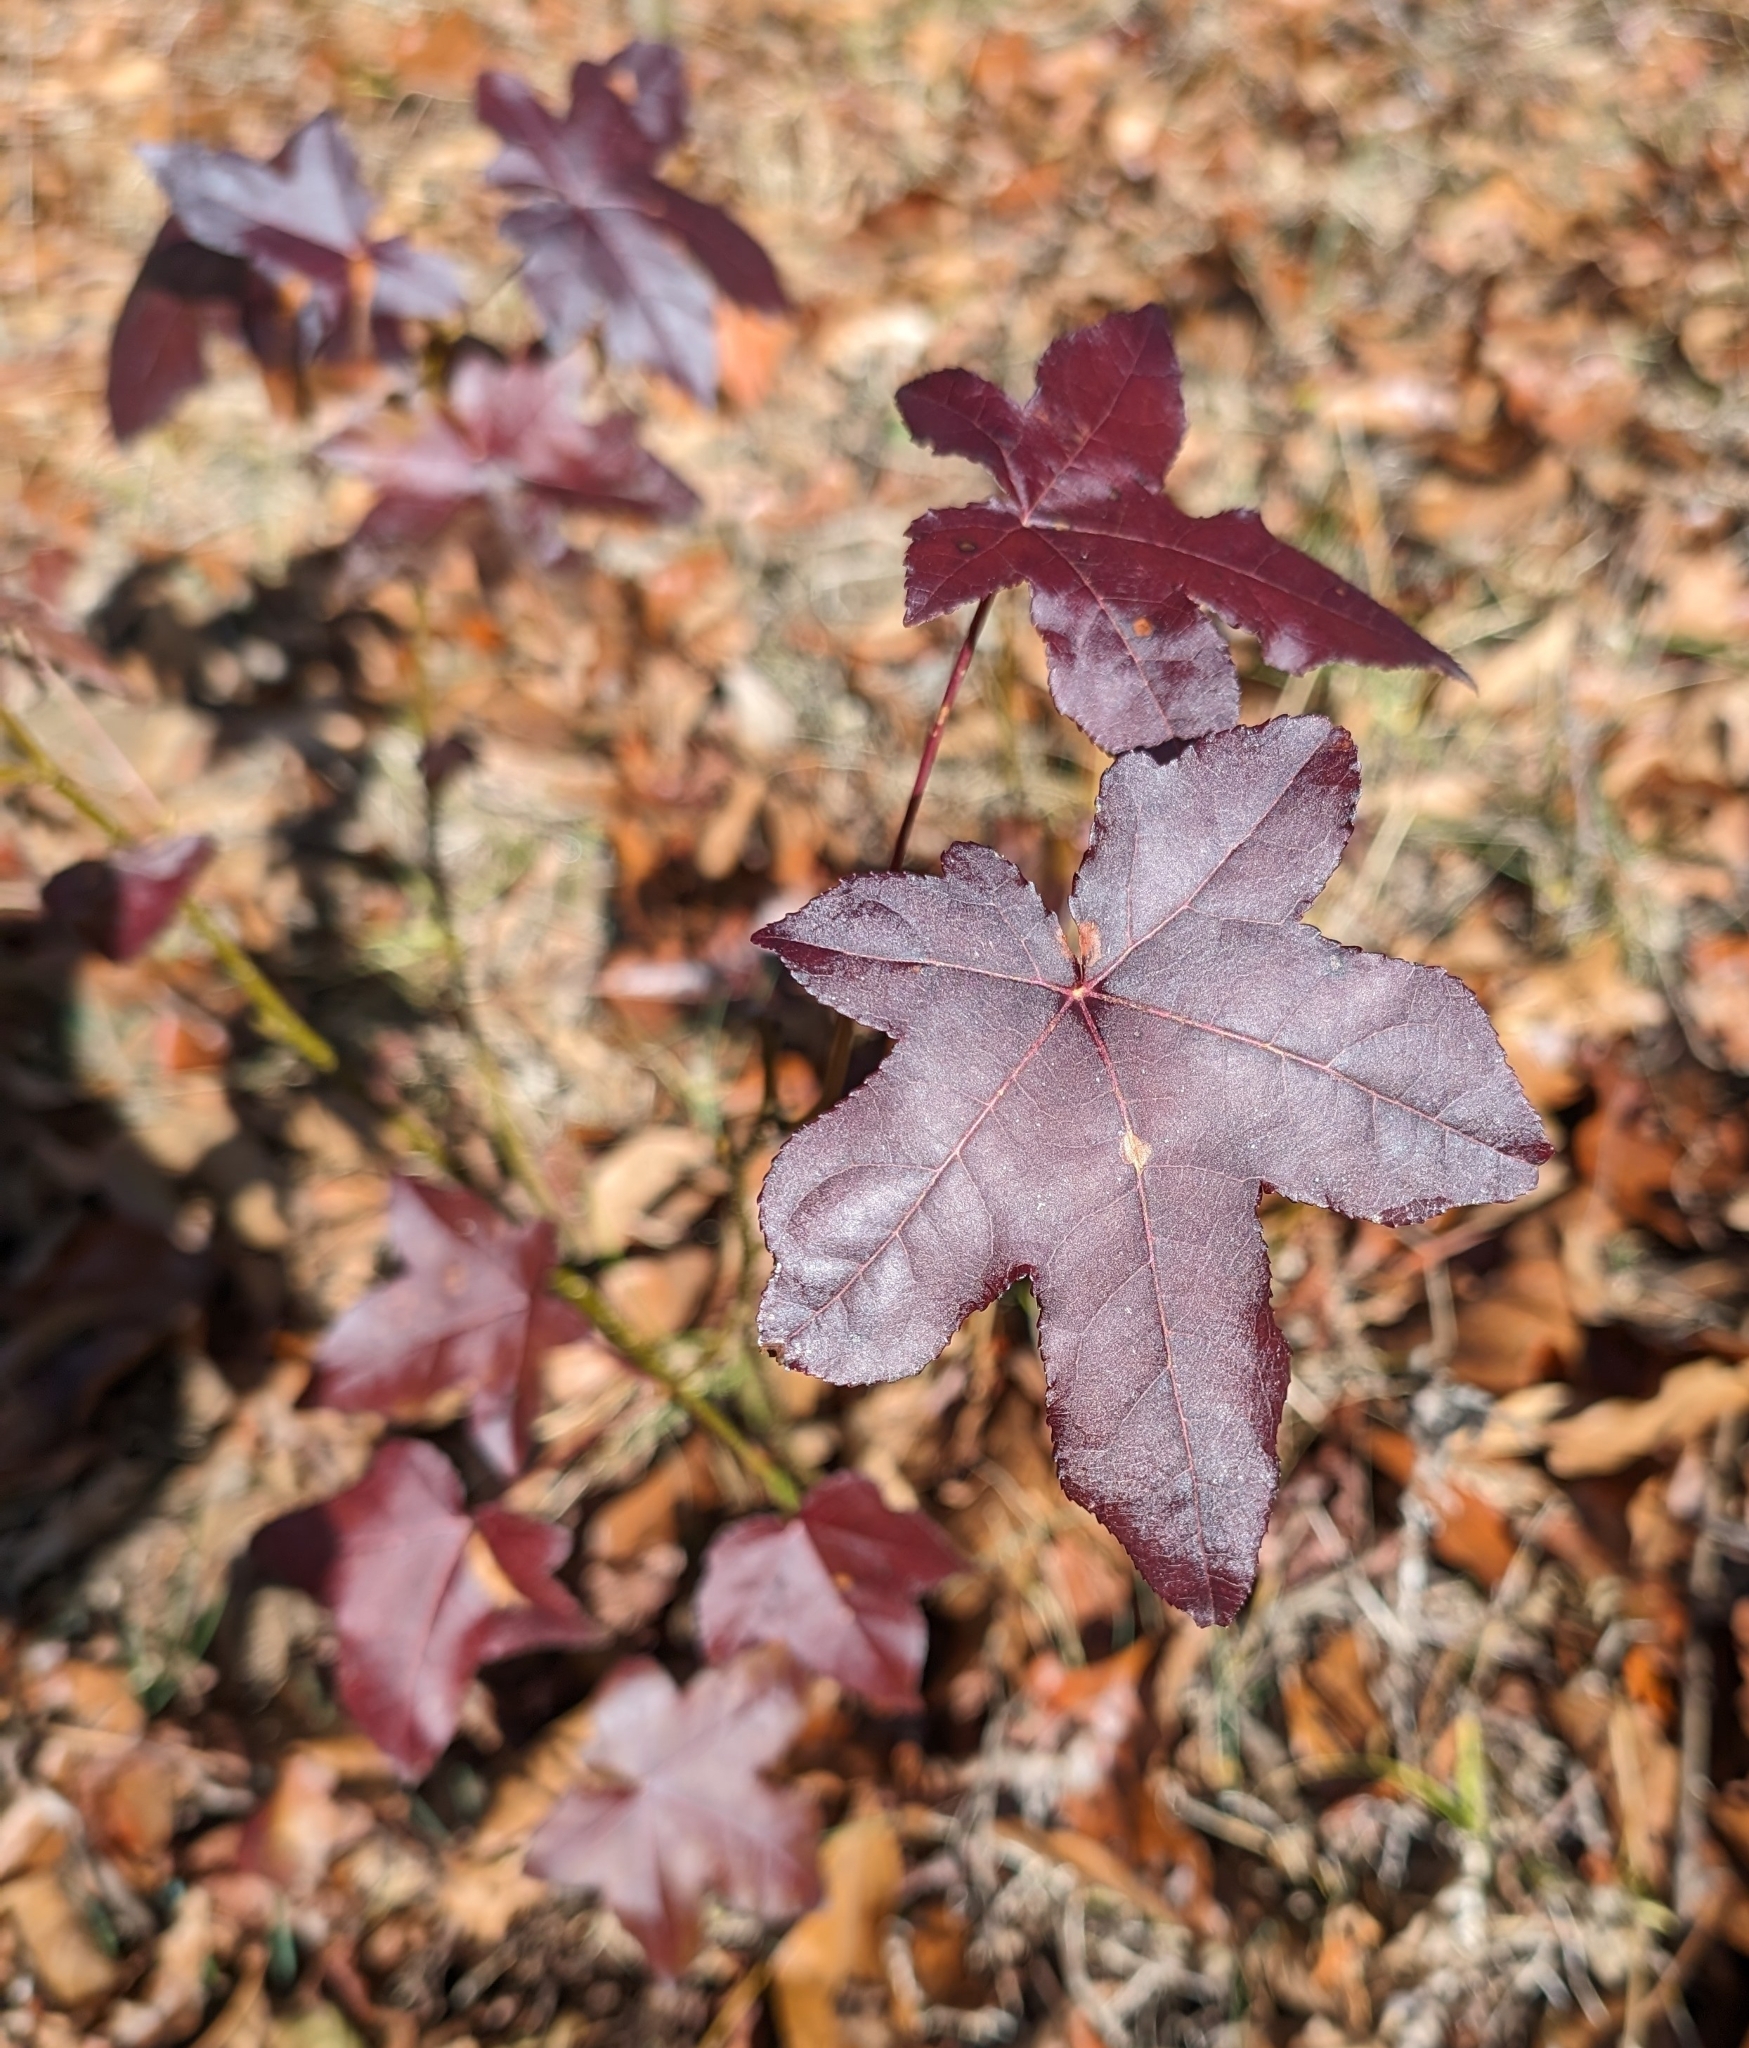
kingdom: Plantae
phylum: Tracheophyta
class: Magnoliopsida
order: Saxifragales
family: Altingiaceae
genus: Liquidambar
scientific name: Liquidambar styraciflua
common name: Sweet gum
